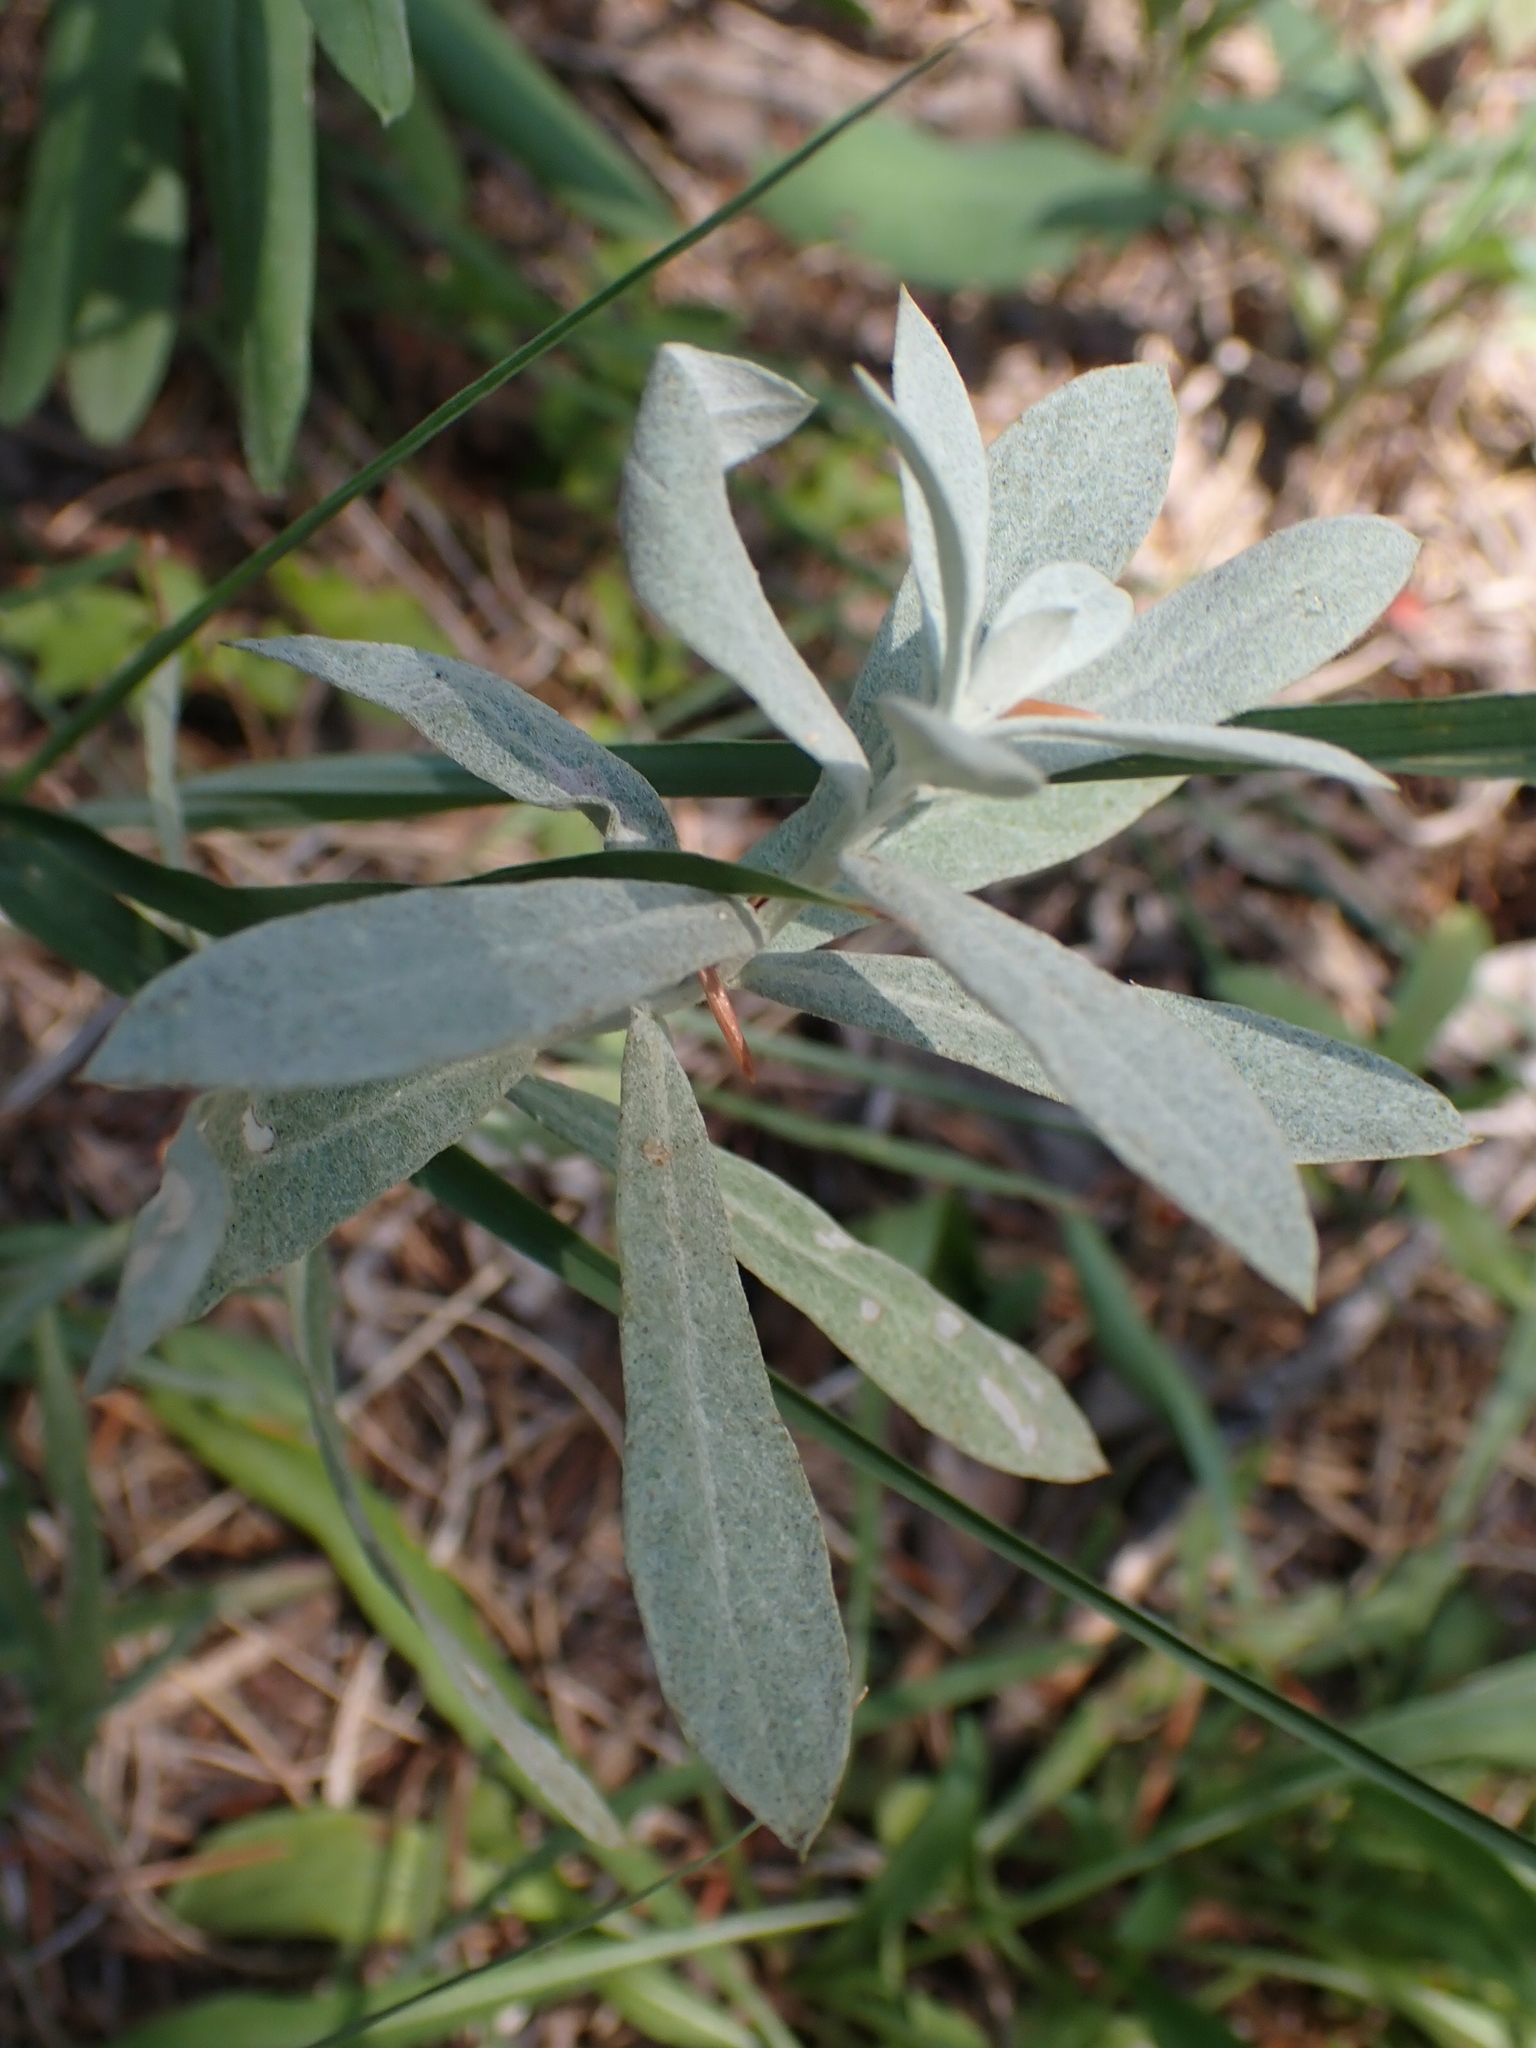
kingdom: Plantae
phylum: Tracheophyta
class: Magnoliopsida
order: Asterales
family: Asteraceae
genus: Artemisia
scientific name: Artemisia ludoviciana
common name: Western mugwort
